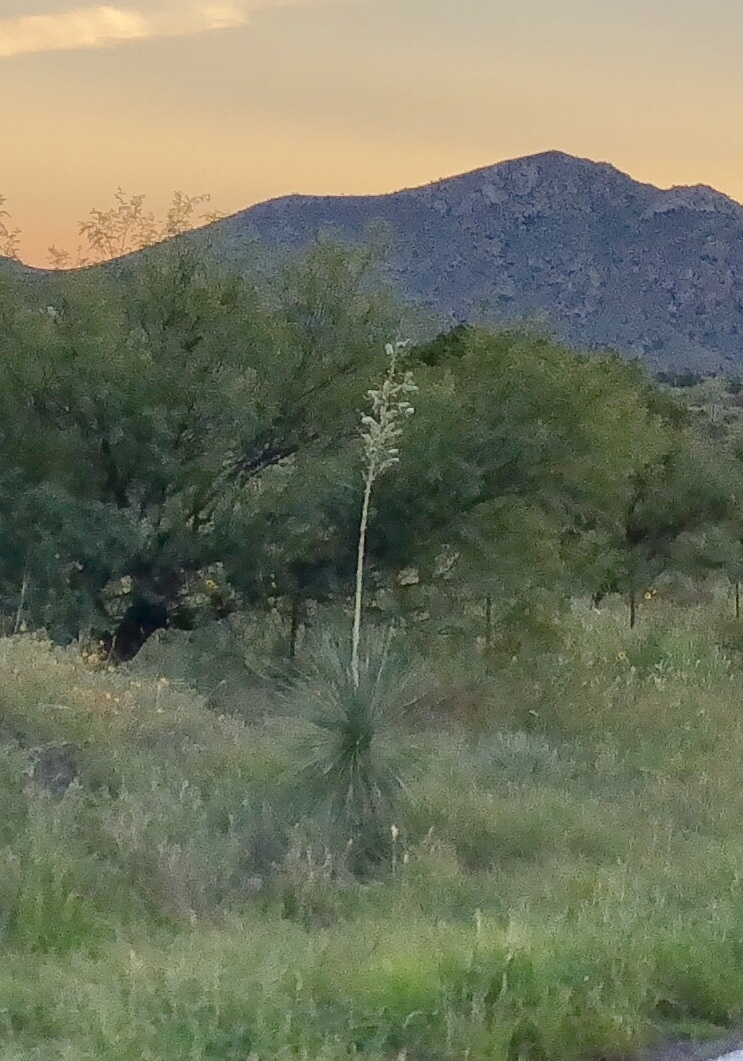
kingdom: Plantae
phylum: Tracheophyta
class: Liliopsida
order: Asparagales
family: Asparagaceae
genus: Yucca
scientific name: Yucca elata
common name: Palmella
